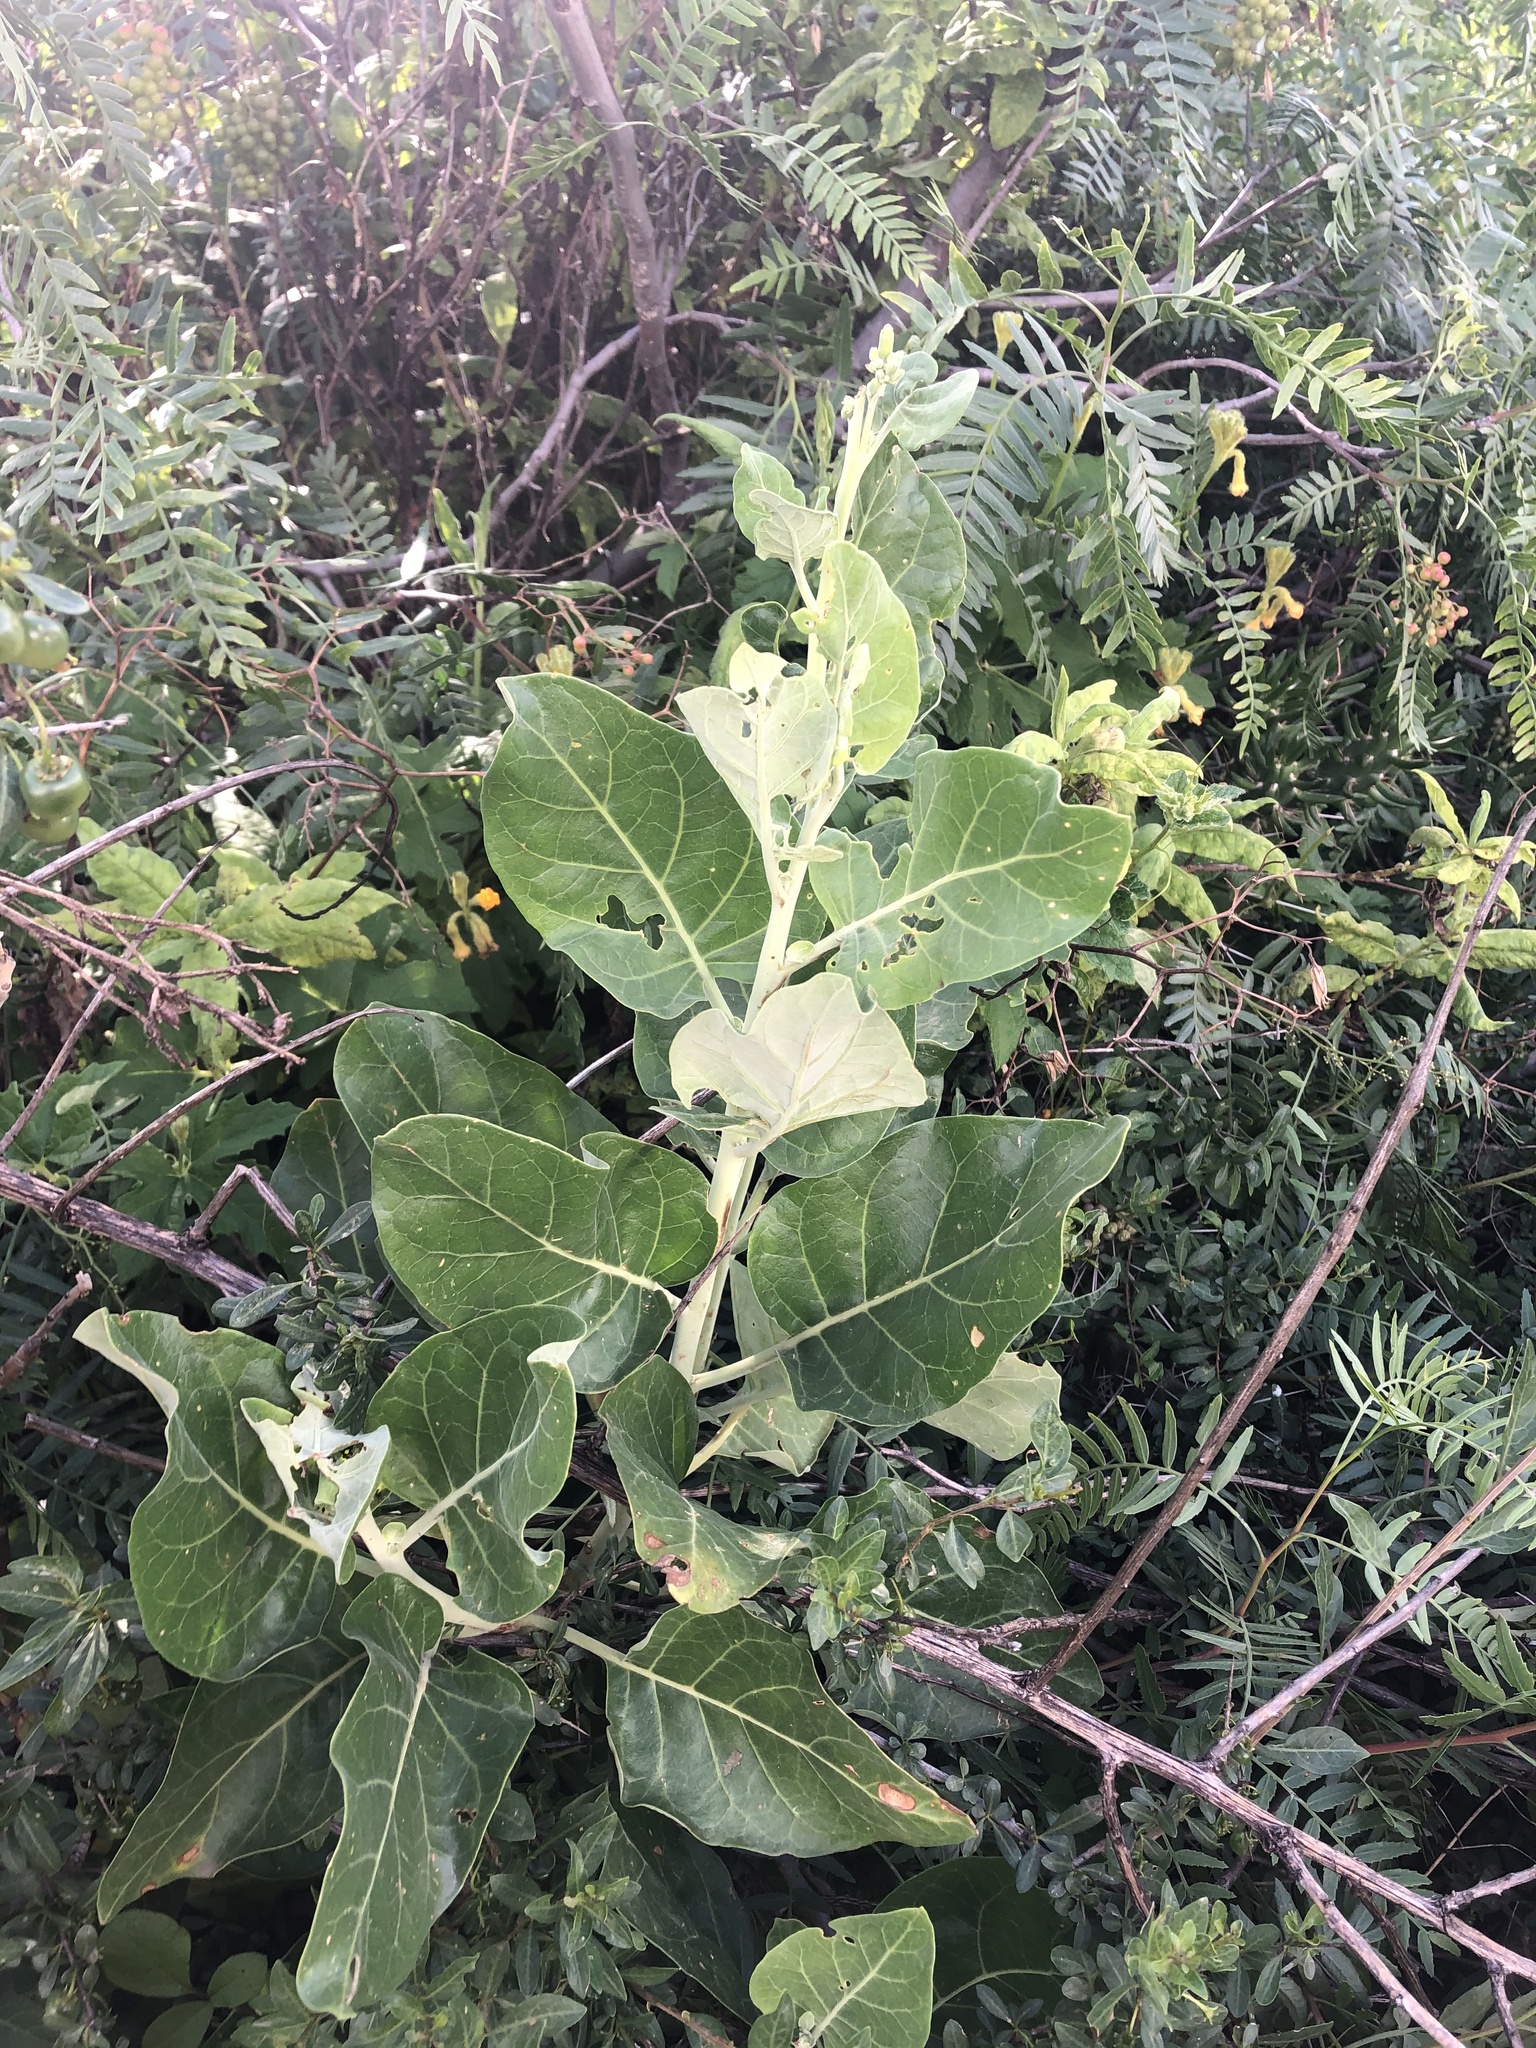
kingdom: Plantae
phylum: Tracheophyta
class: Magnoliopsida
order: Solanales
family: Solanaceae
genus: Nicotiana
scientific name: Nicotiana paniculata
